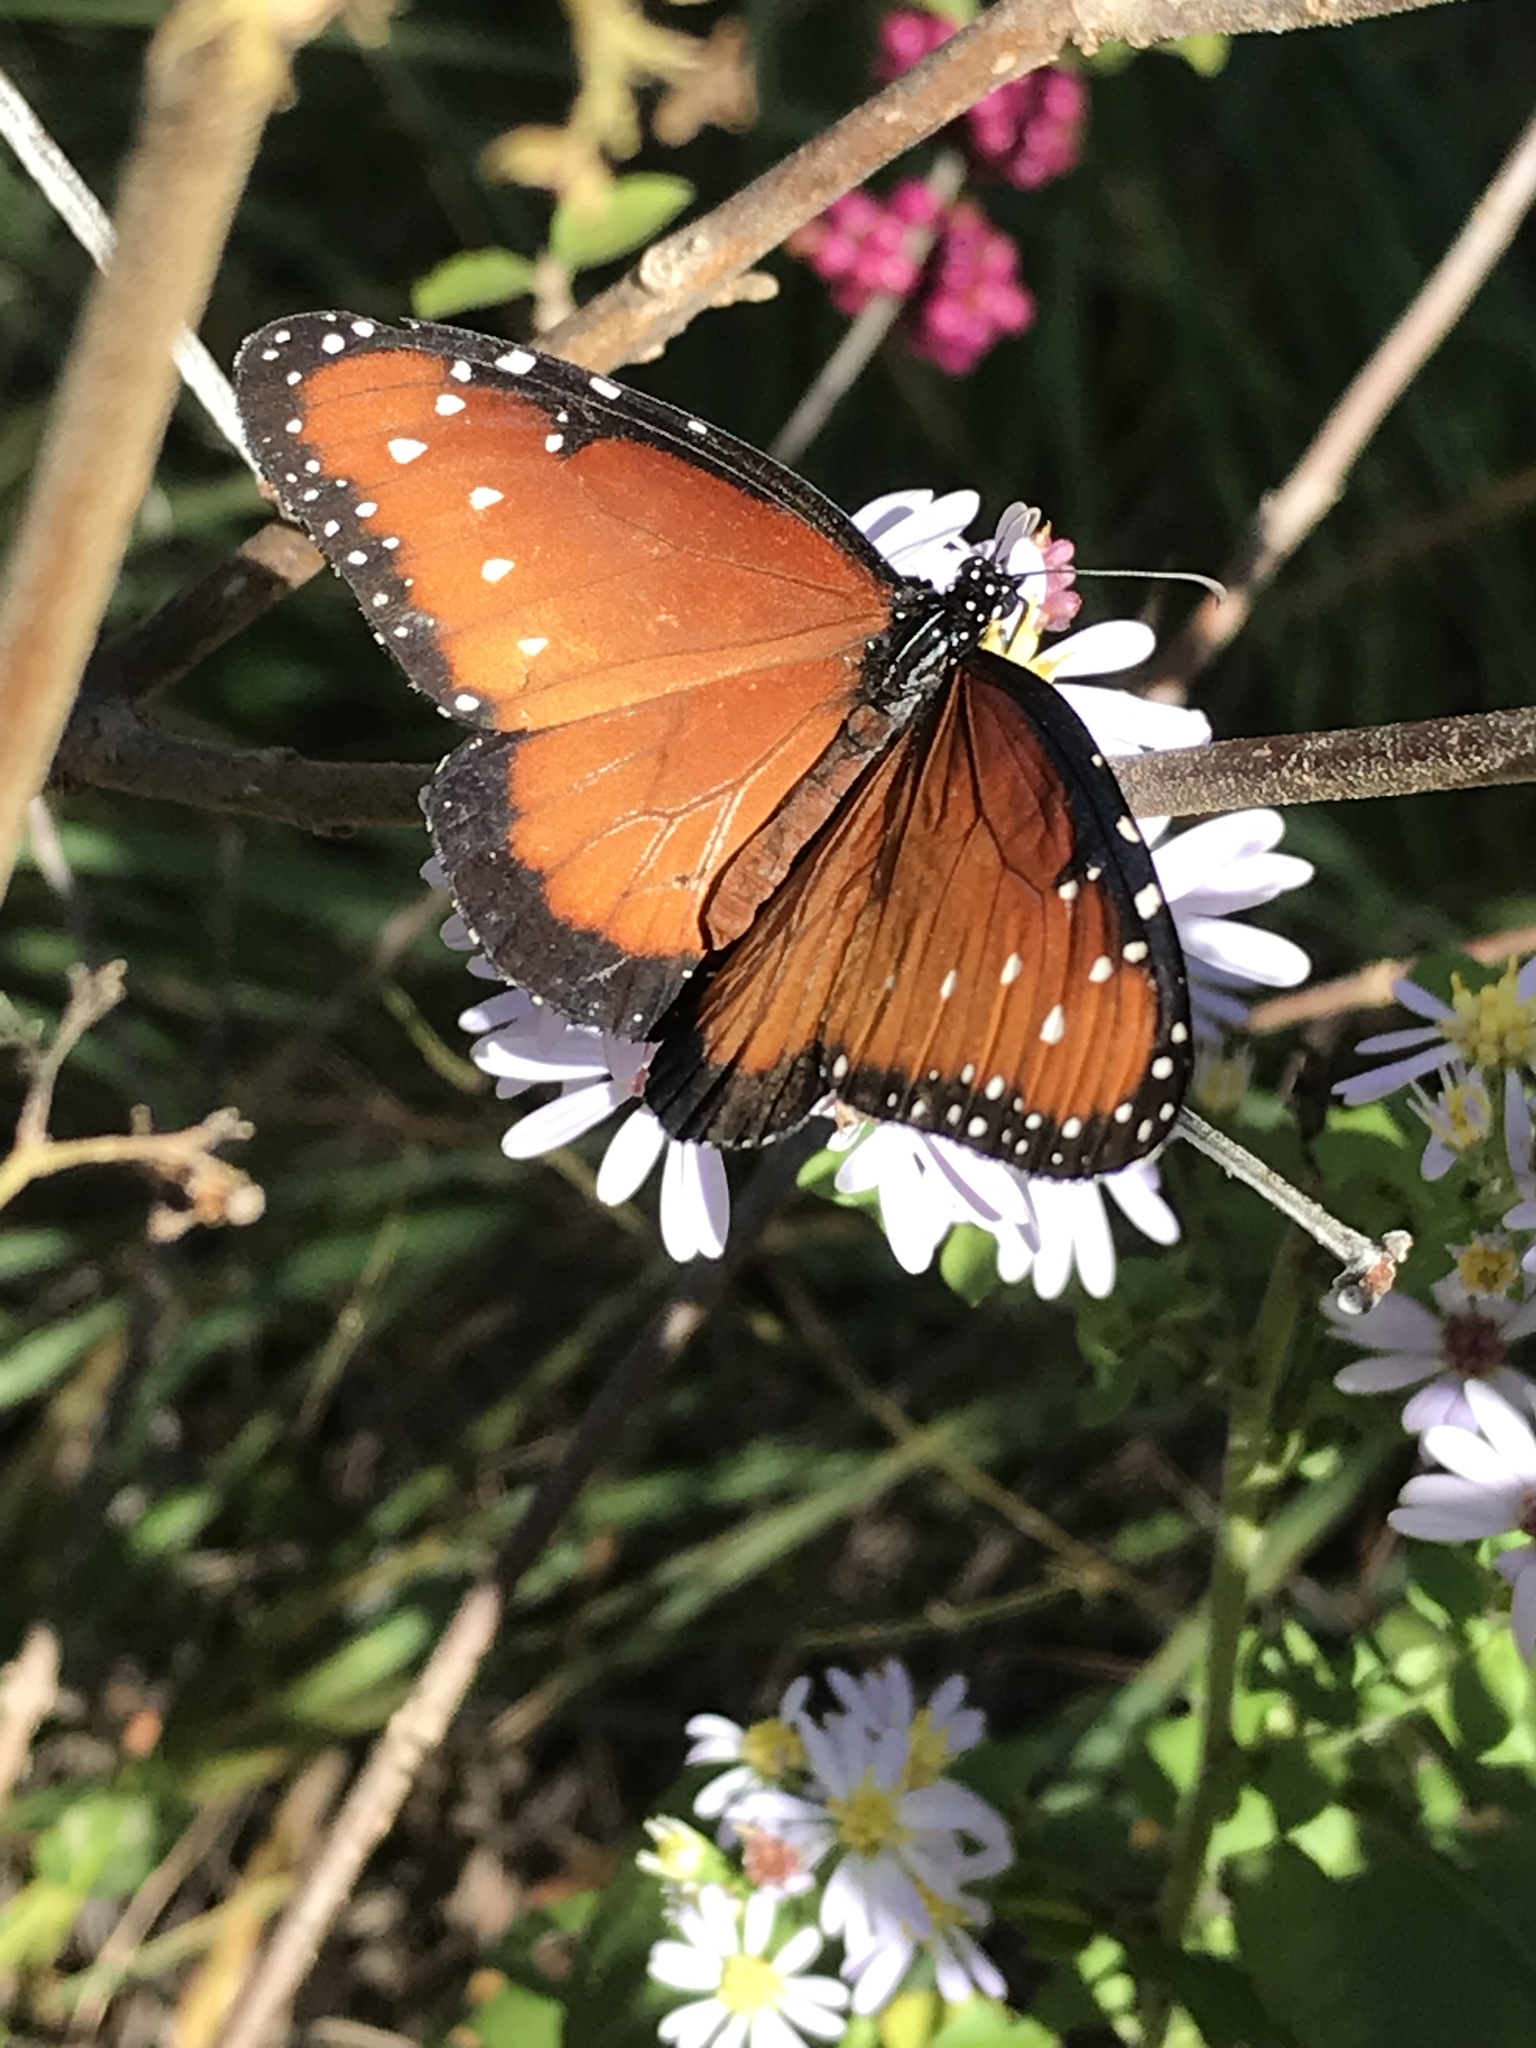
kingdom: Animalia
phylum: Arthropoda
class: Insecta
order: Lepidoptera
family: Nymphalidae
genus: Danaus
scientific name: Danaus gilippus
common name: Queen
